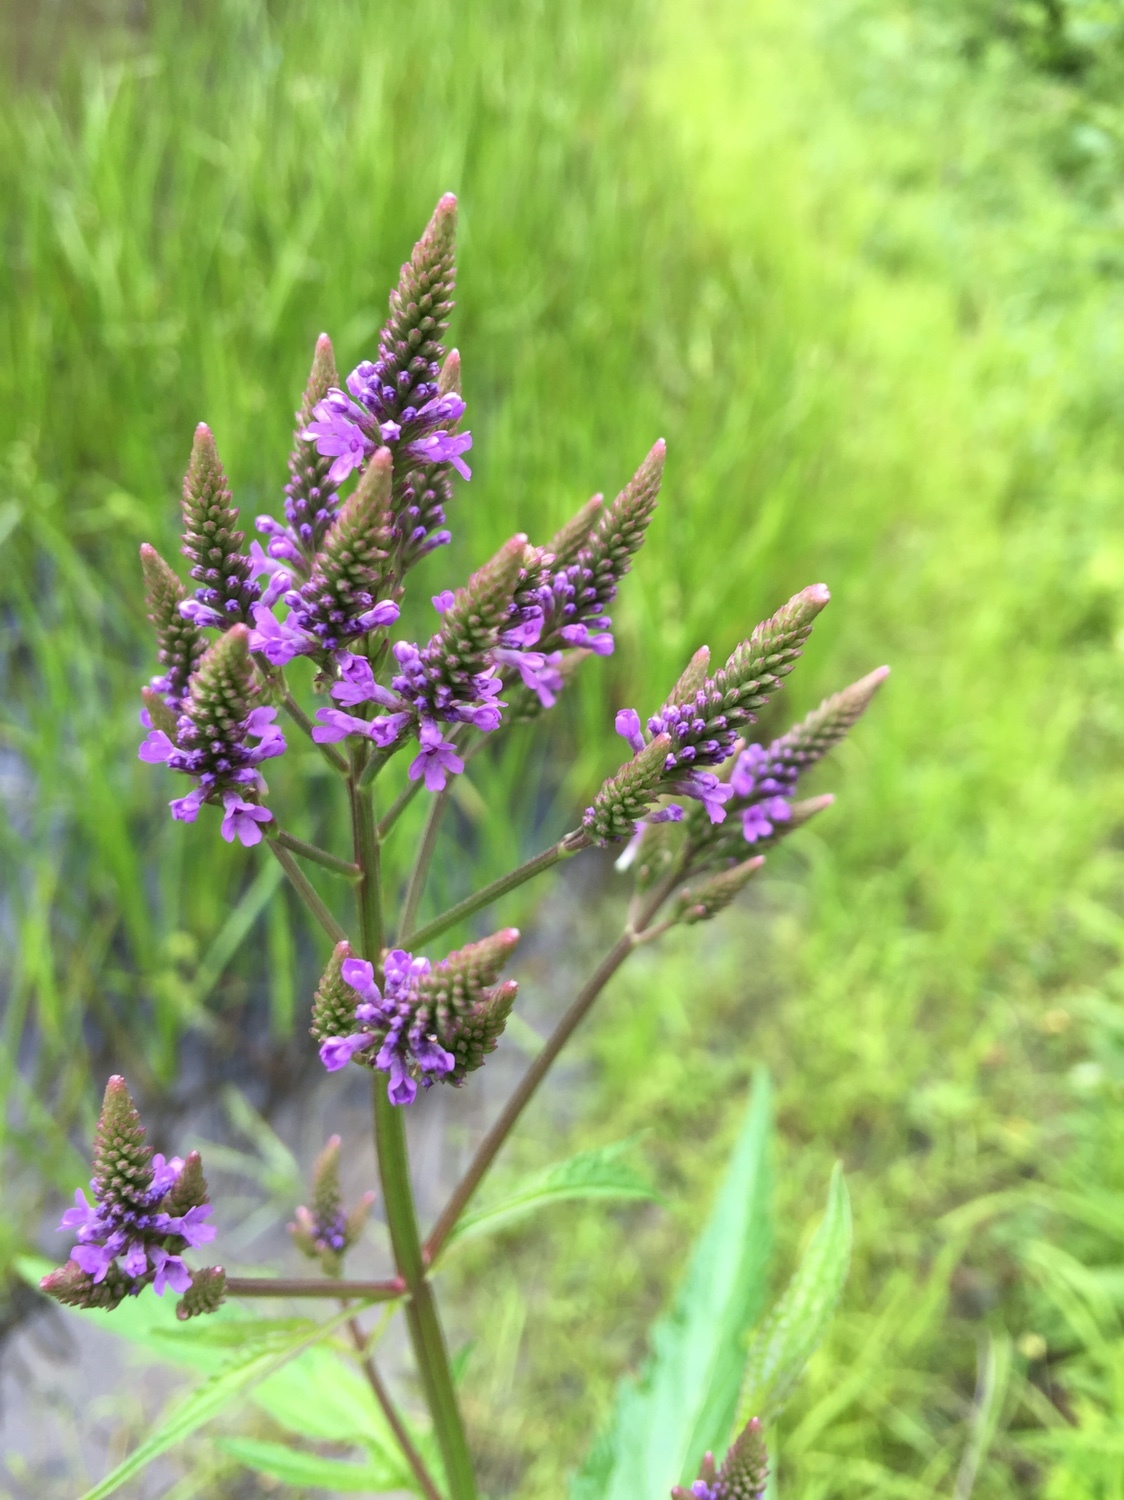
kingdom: Plantae
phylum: Tracheophyta
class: Magnoliopsida
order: Lamiales
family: Verbenaceae
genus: Verbena
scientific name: Verbena hastata
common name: American blue vervain
